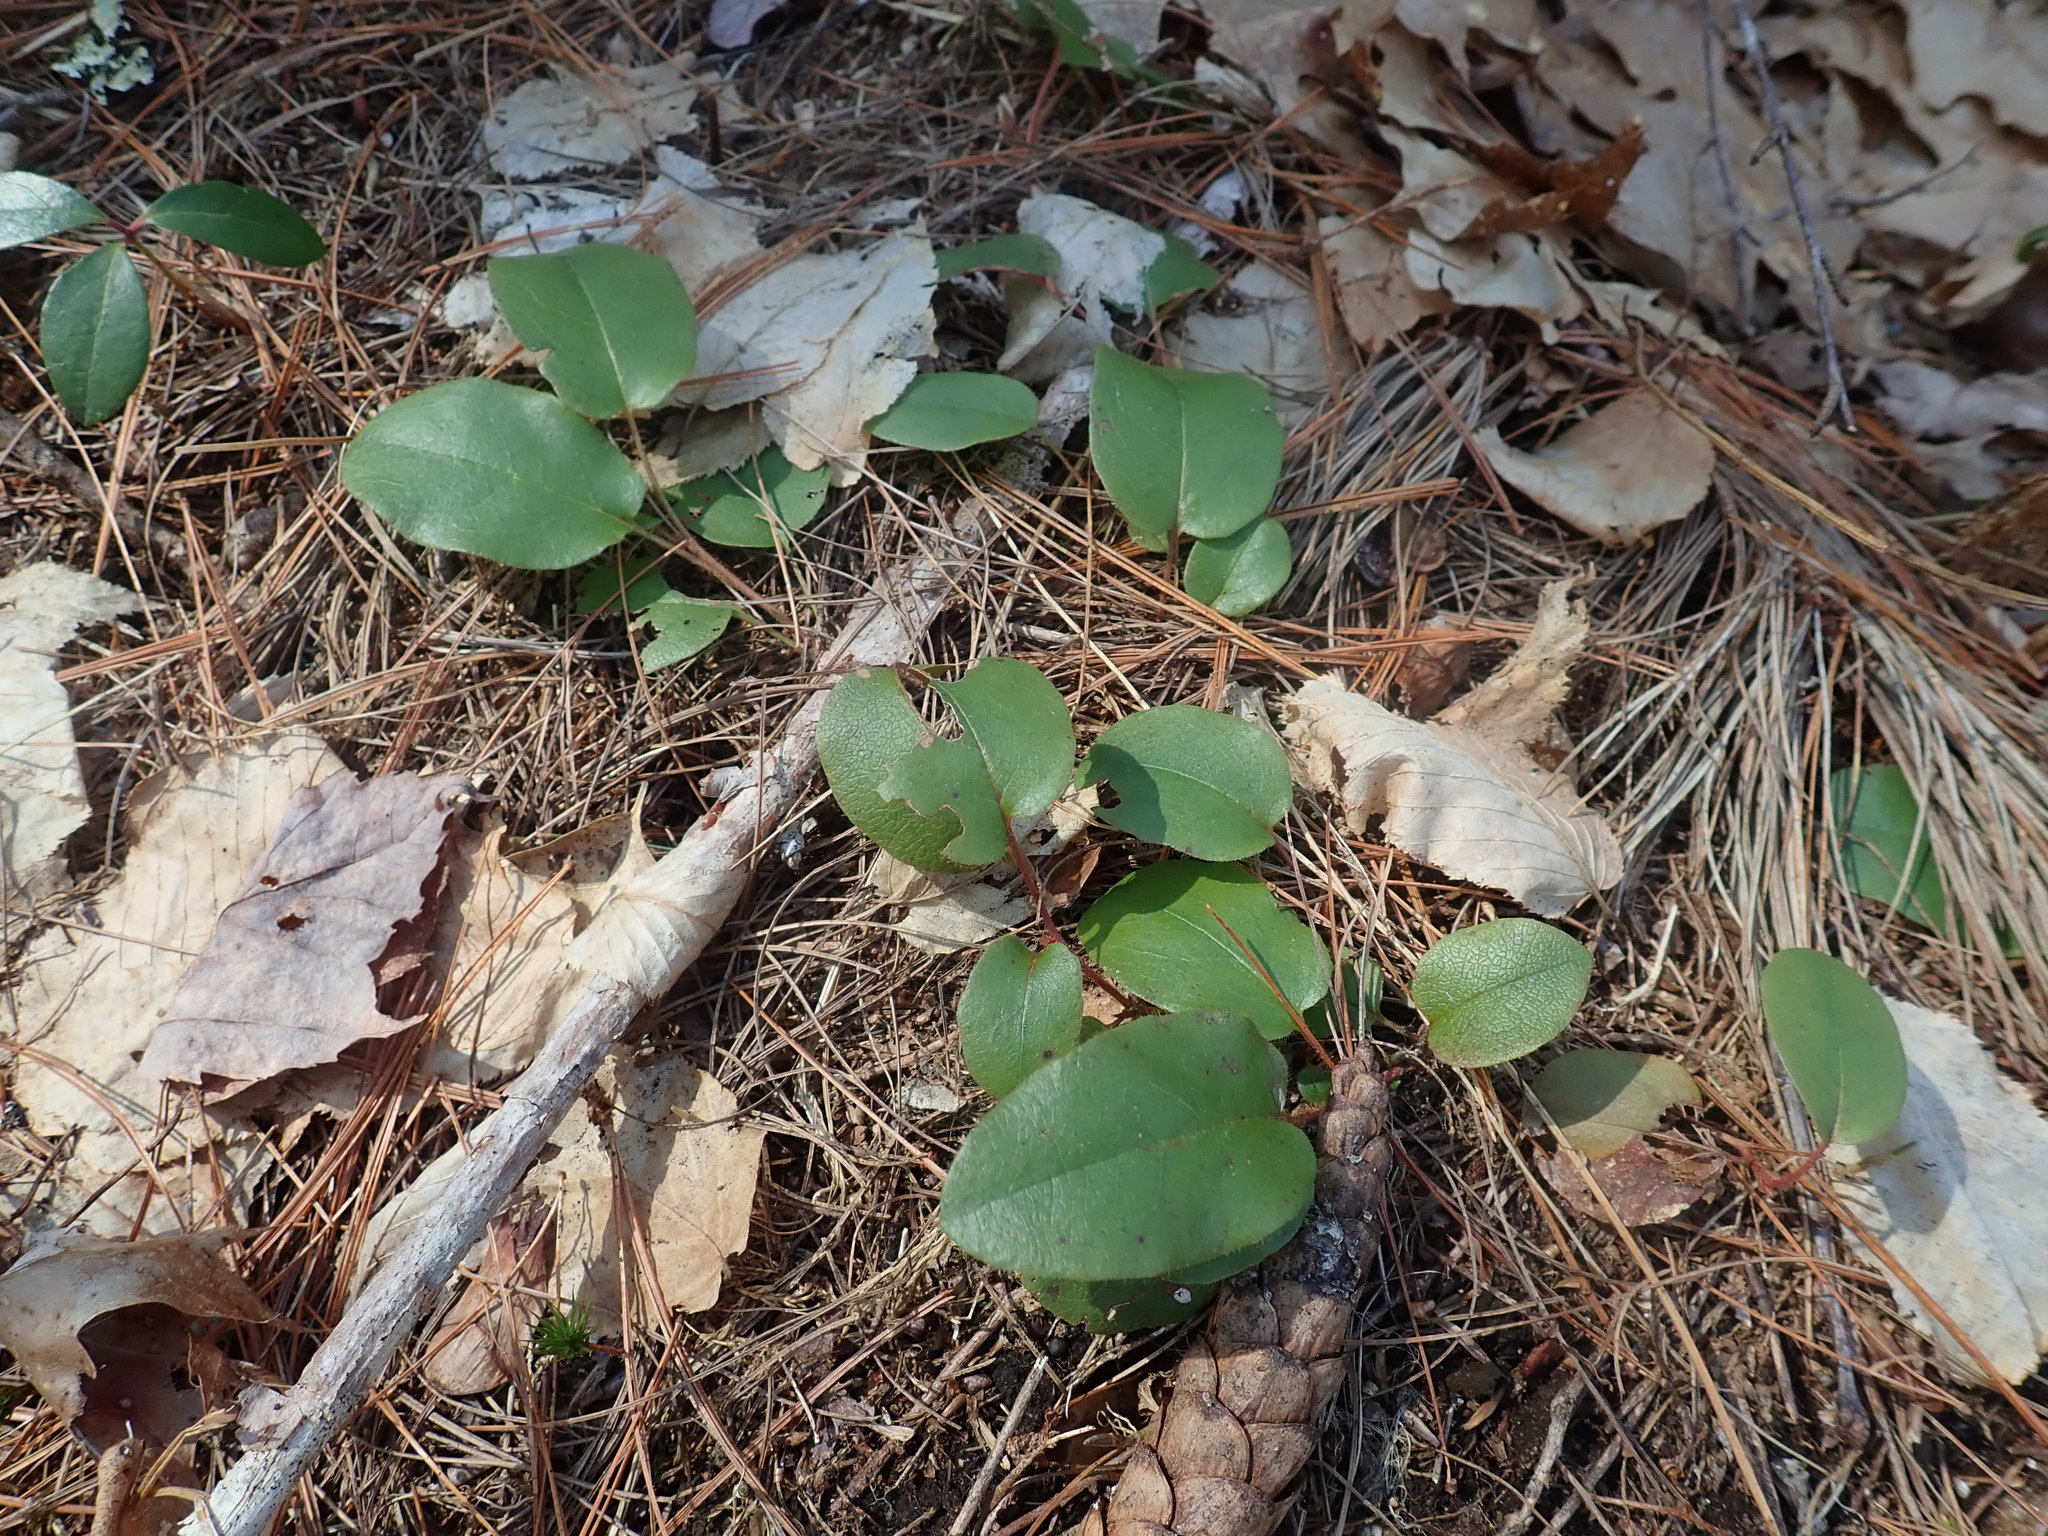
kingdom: Plantae
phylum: Tracheophyta
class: Magnoliopsida
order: Ericales
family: Ericaceae
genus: Epigaea
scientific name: Epigaea repens
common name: Gravelroot
